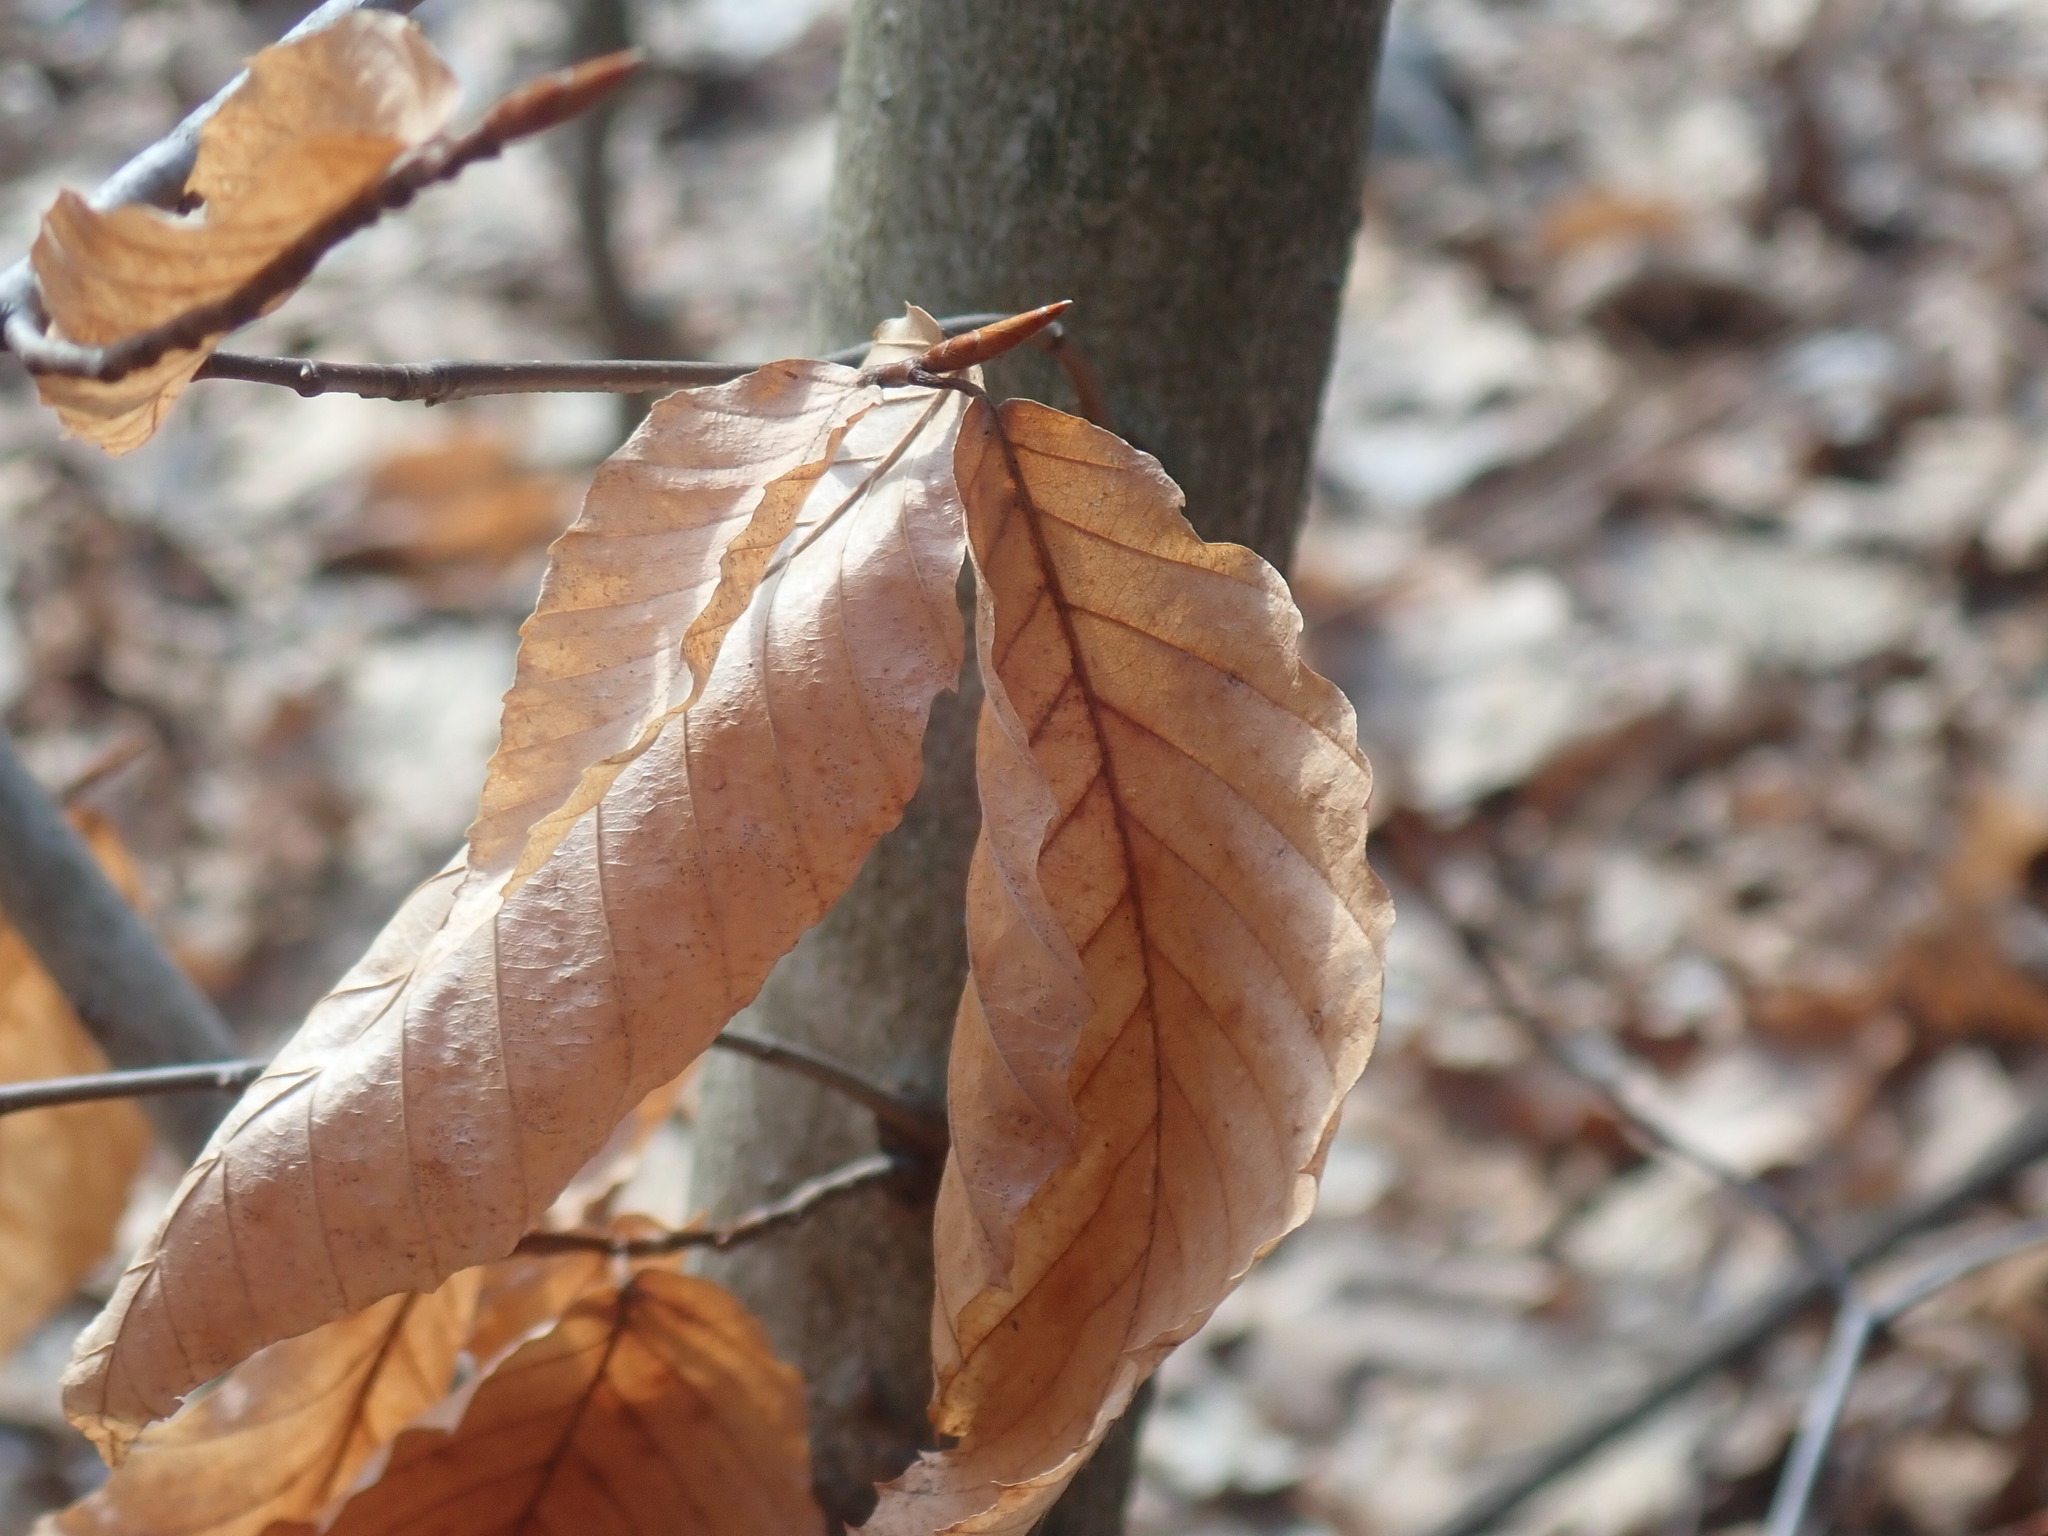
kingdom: Plantae
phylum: Tracheophyta
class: Magnoliopsida
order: Fagales
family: Fagaceae
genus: Fagus
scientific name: Fagus grandifolia
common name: American beech
